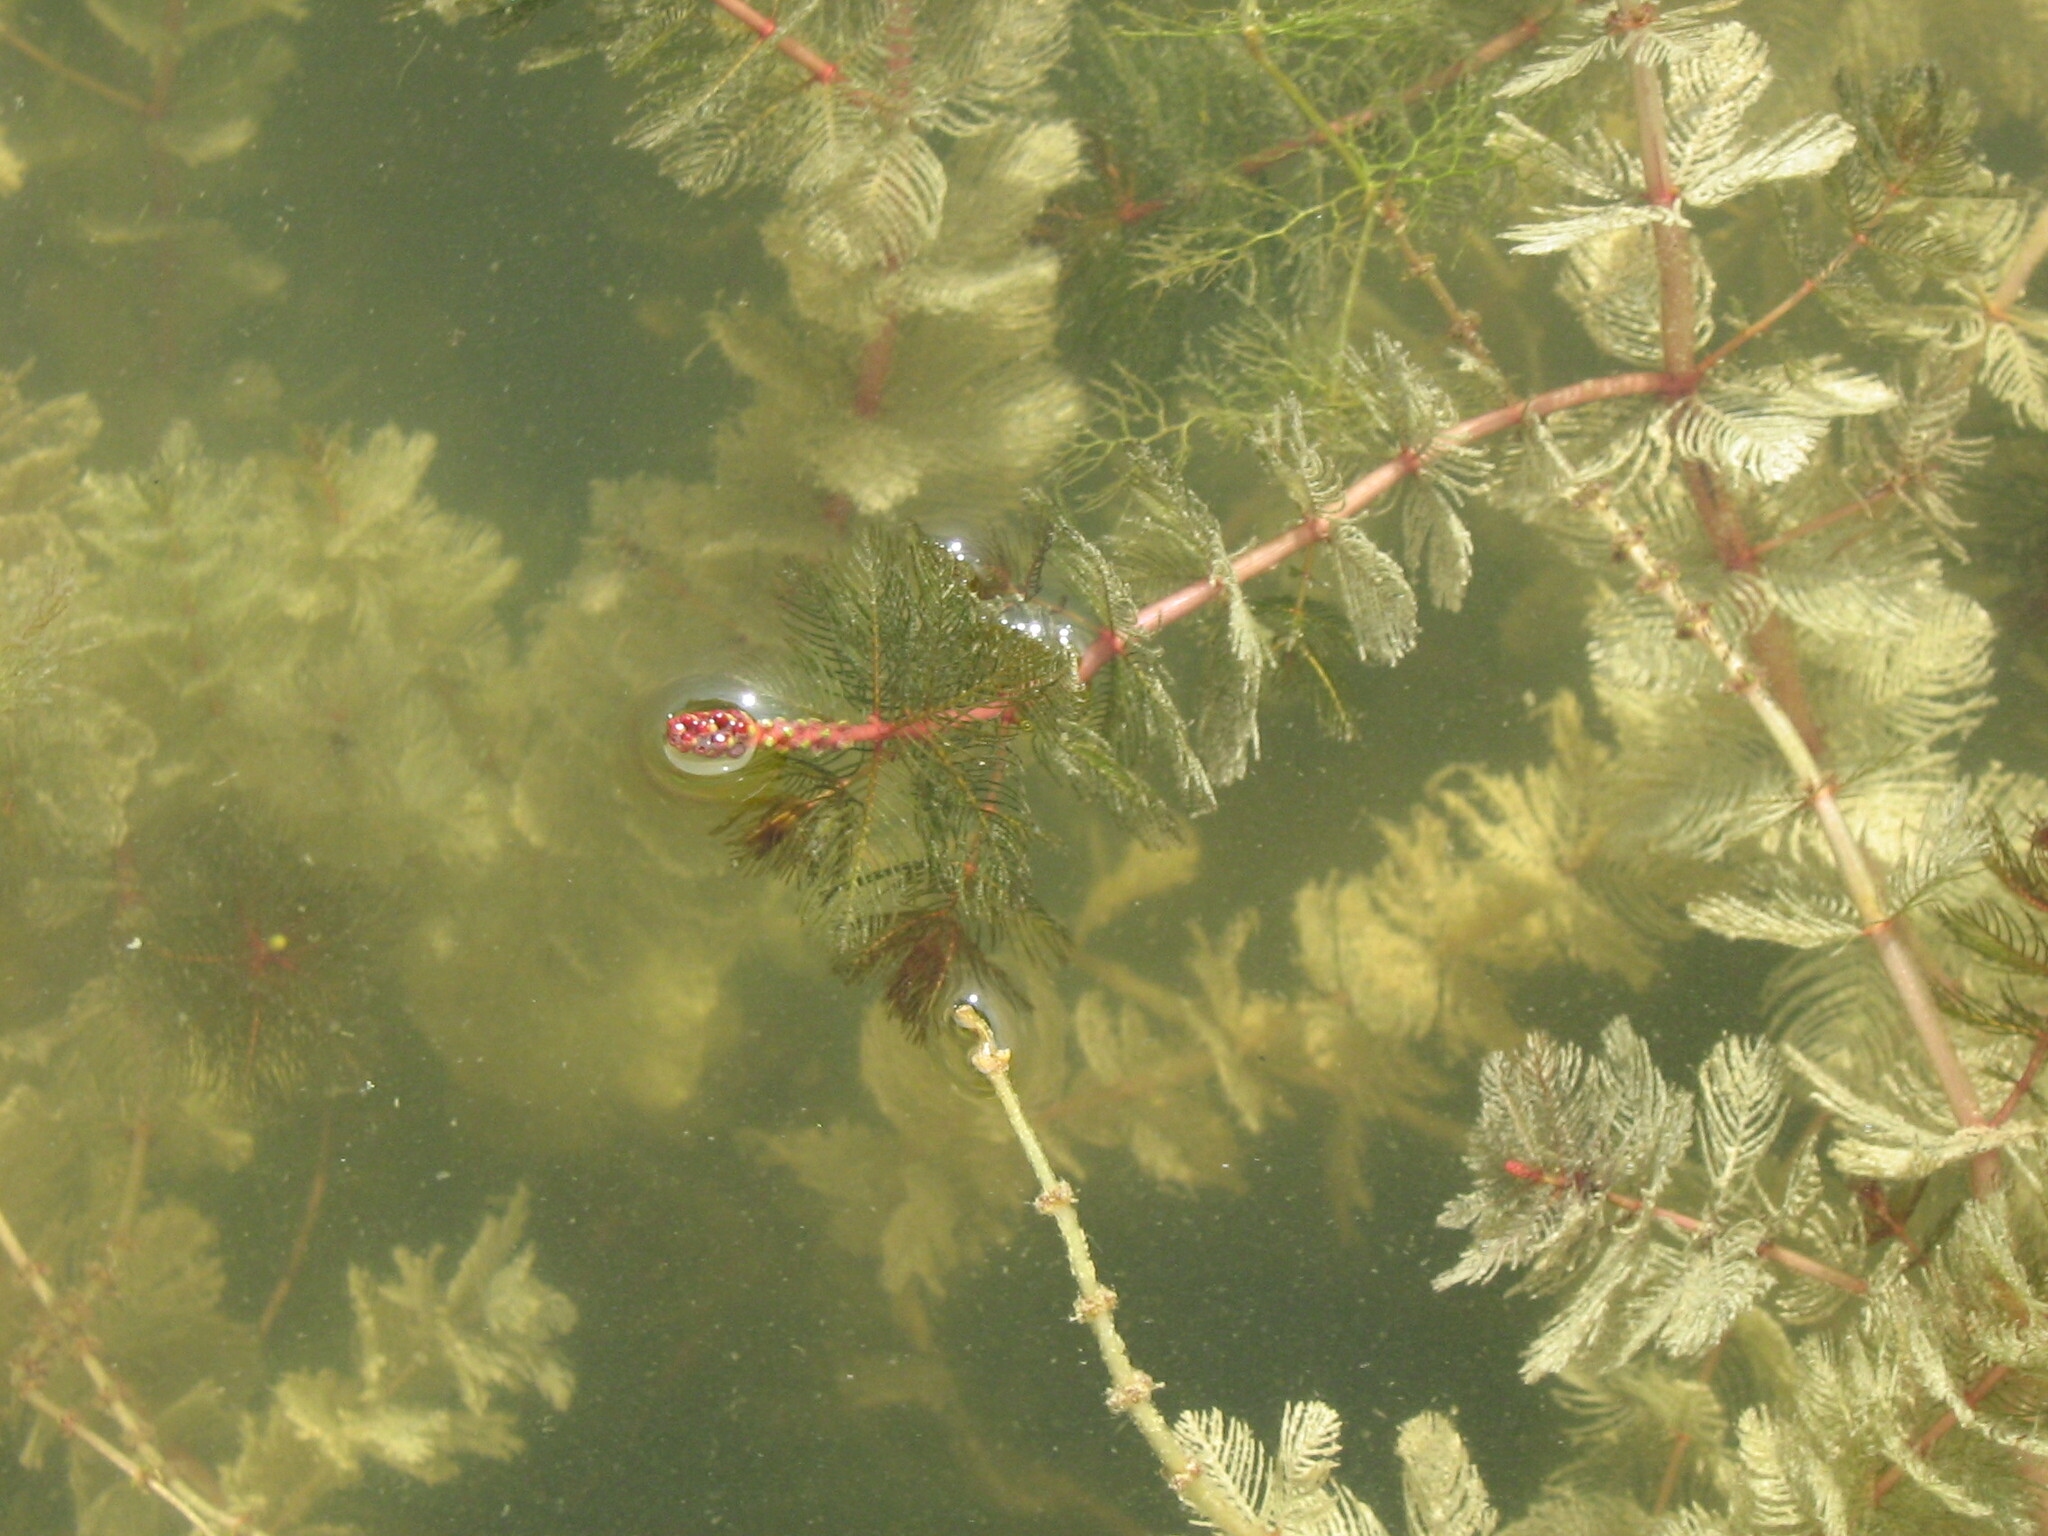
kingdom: Plantae
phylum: Tracheophyta
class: Magnoliopsida
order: Saxifragales
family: Haloragaceae
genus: Myriophyllum
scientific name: Myriophyllum spicatum
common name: Spiked water-milfoil
